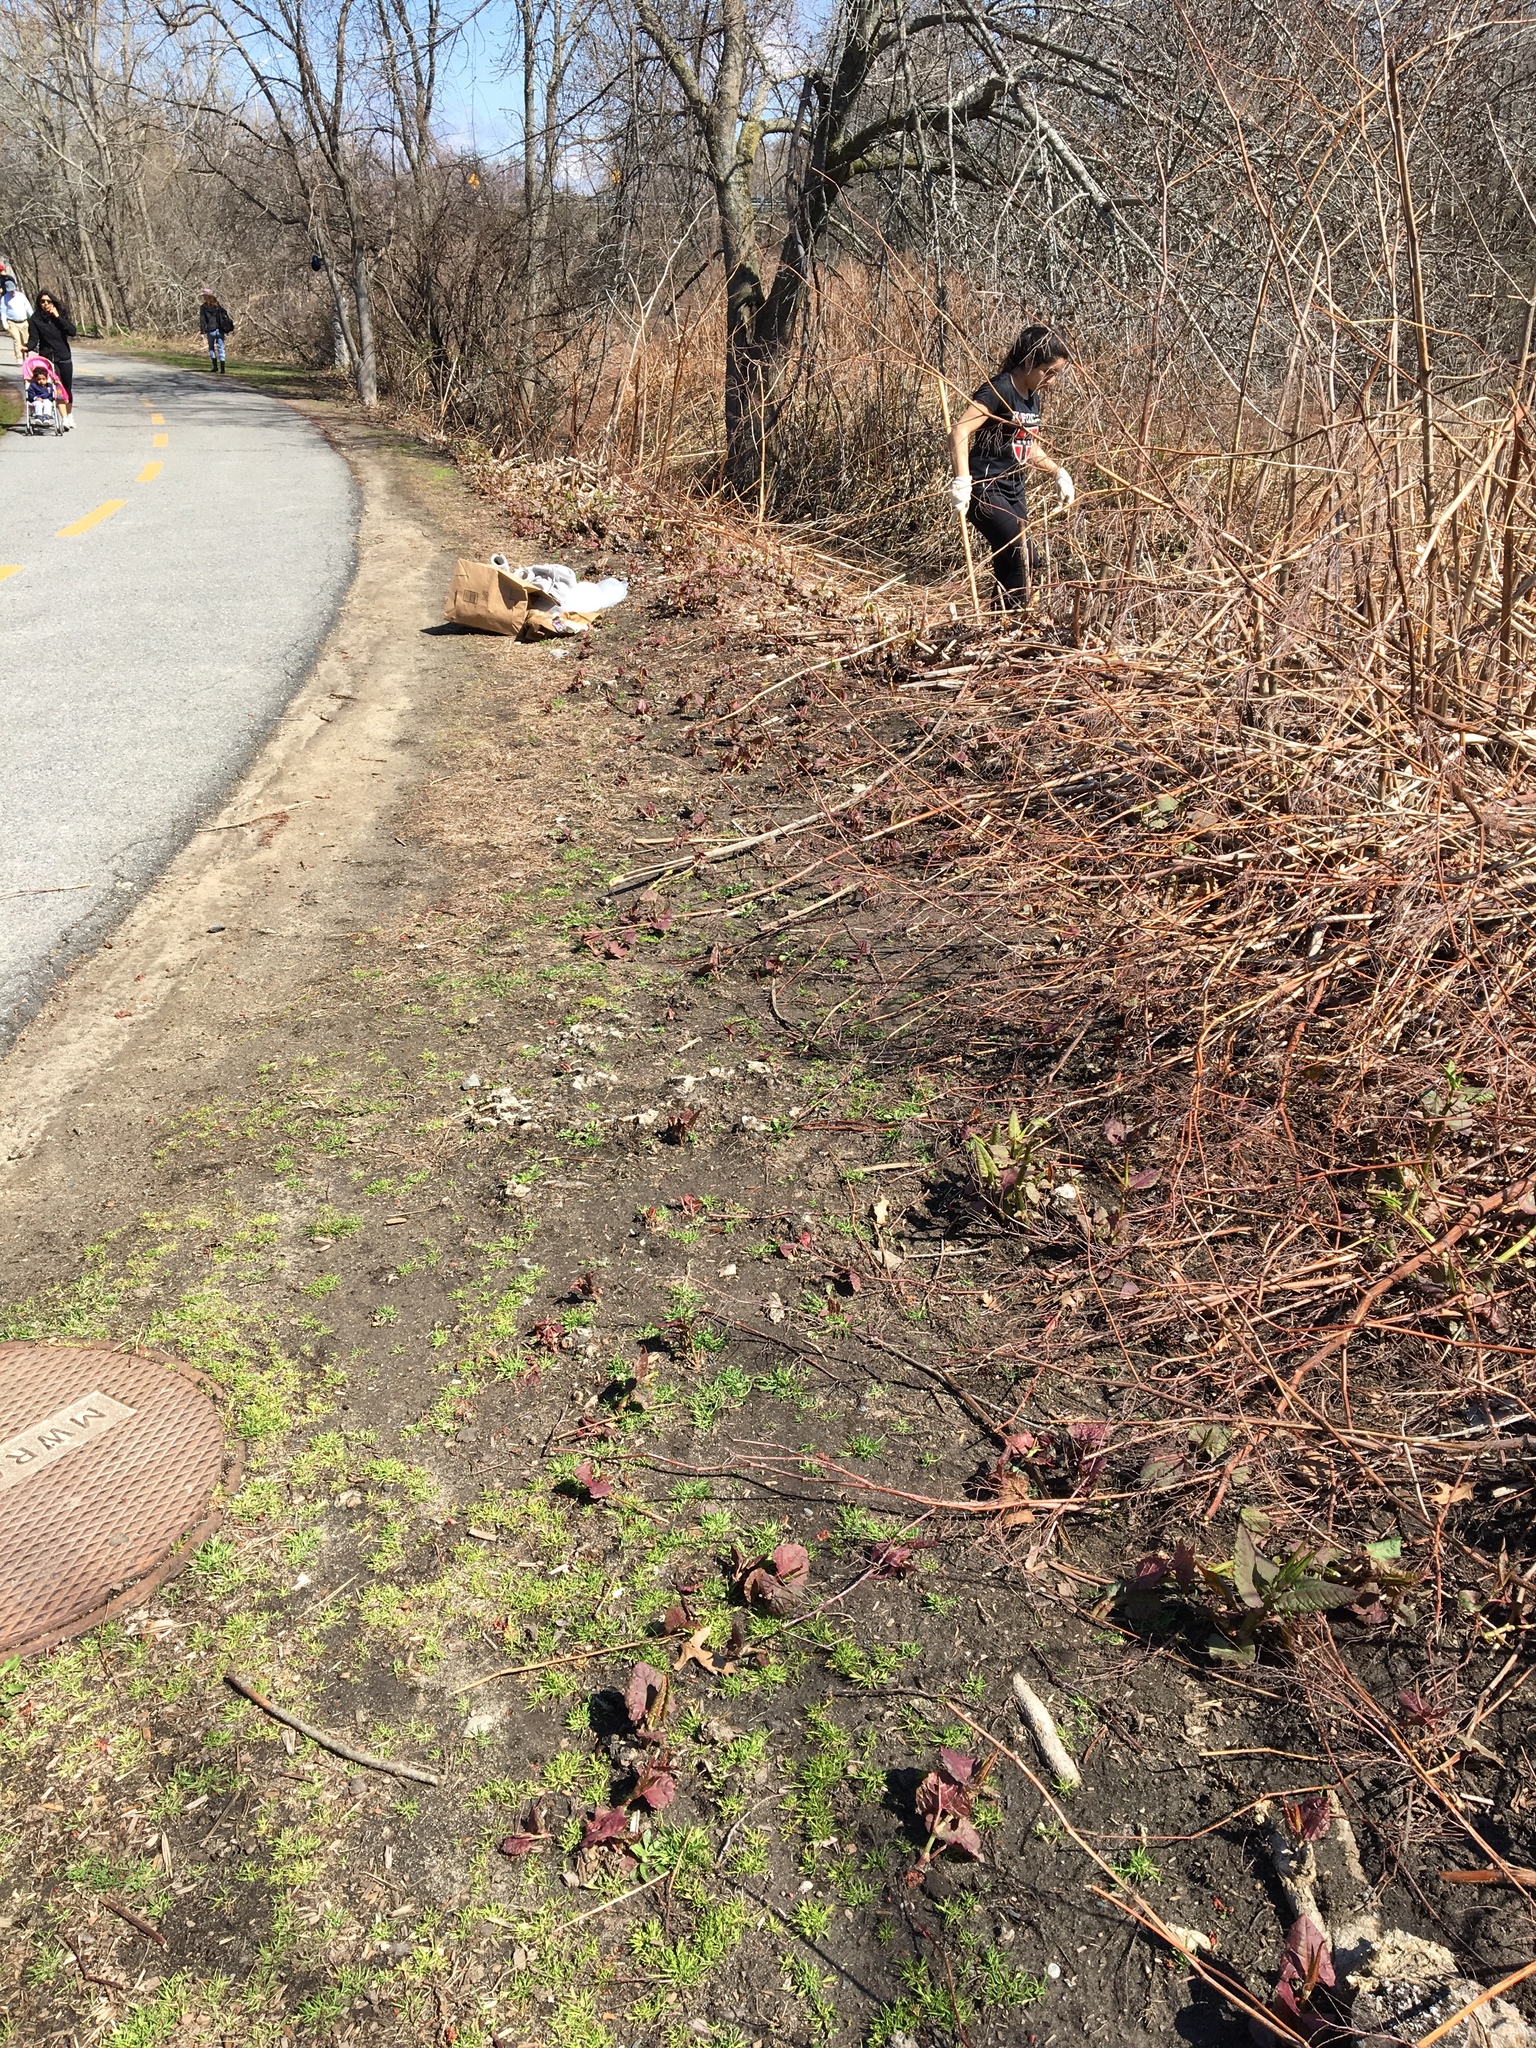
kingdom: Plantae
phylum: Tracheophyta
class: Magnoliopsida
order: Caryophyllales
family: Polygonaceae
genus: Reynoutria
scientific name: Reynoutria japonica
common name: Japanese knotweed
